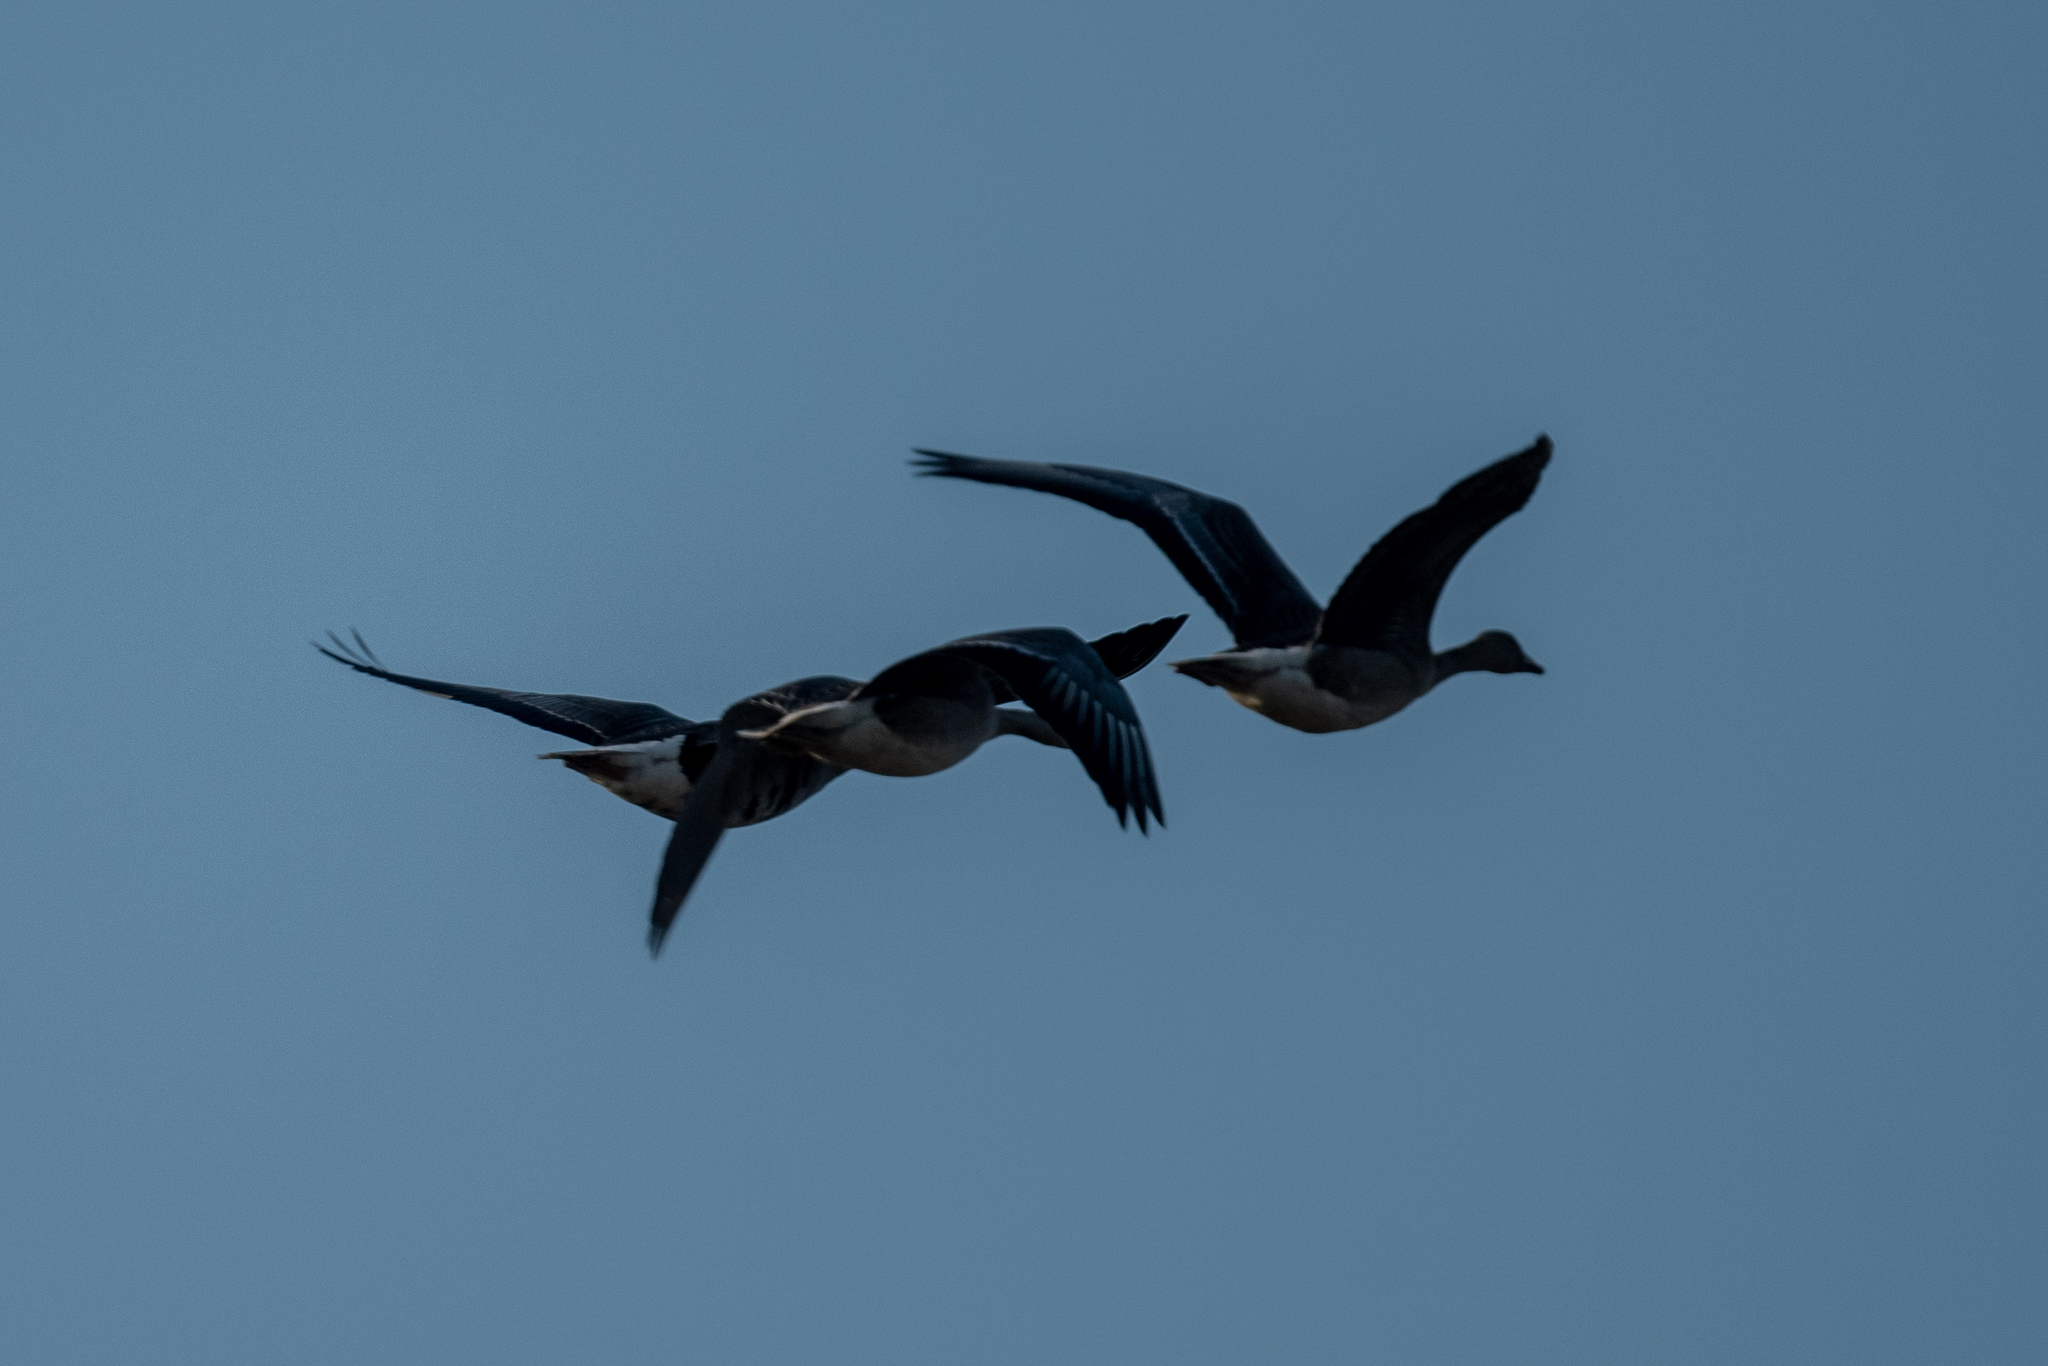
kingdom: Animalia
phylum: Chordata
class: Aves
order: Anseriformes
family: Anatidae
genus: Anser
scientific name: Anser albifrons
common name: Greater white-fronted goose
